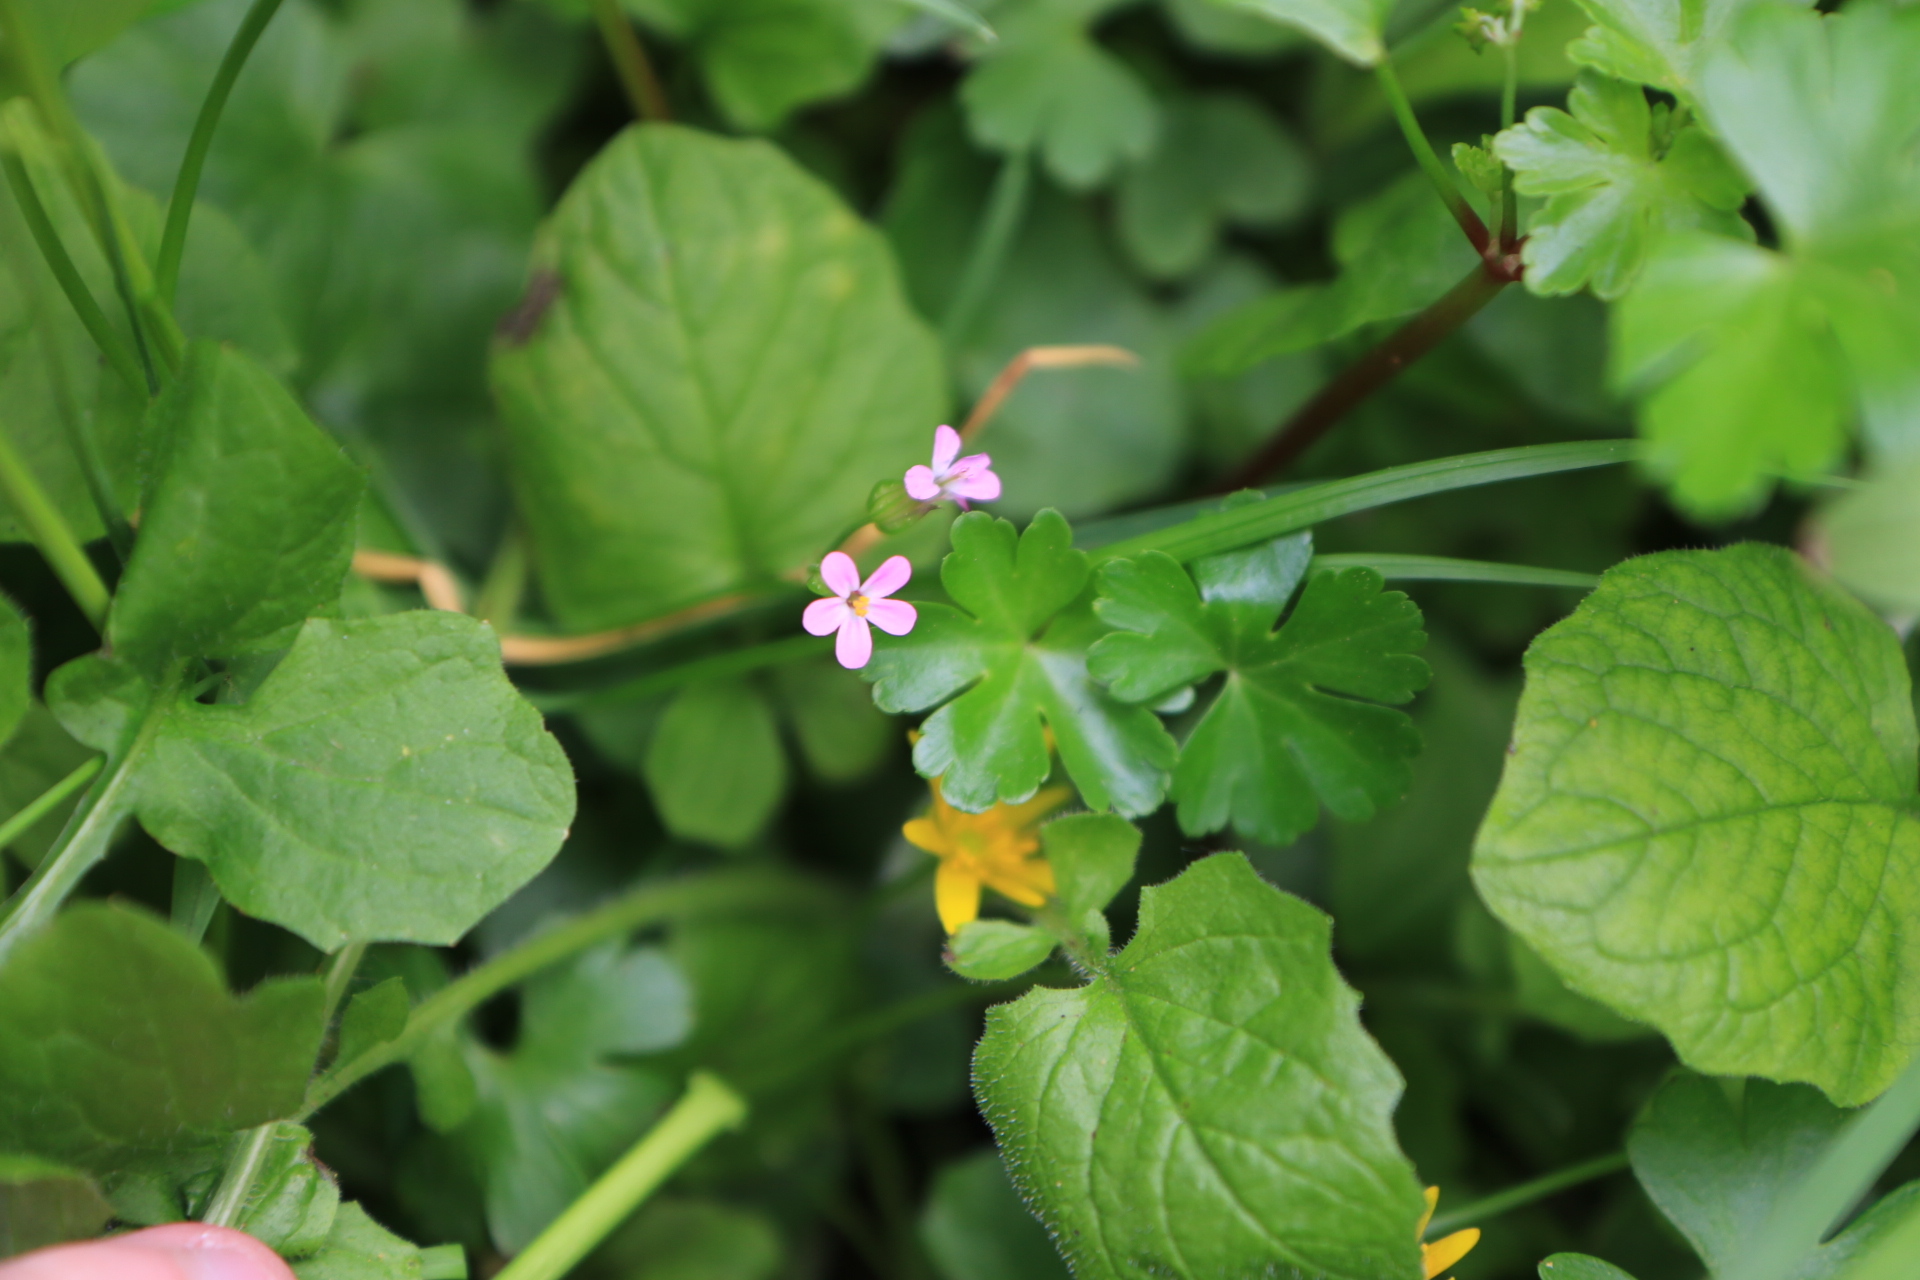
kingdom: Plantae
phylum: Tracheophyta
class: Magnoliopsida
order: Geraniales
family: Geraniaceae
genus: Geranium
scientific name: Geranium lucidum
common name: Shining crane's-bill
